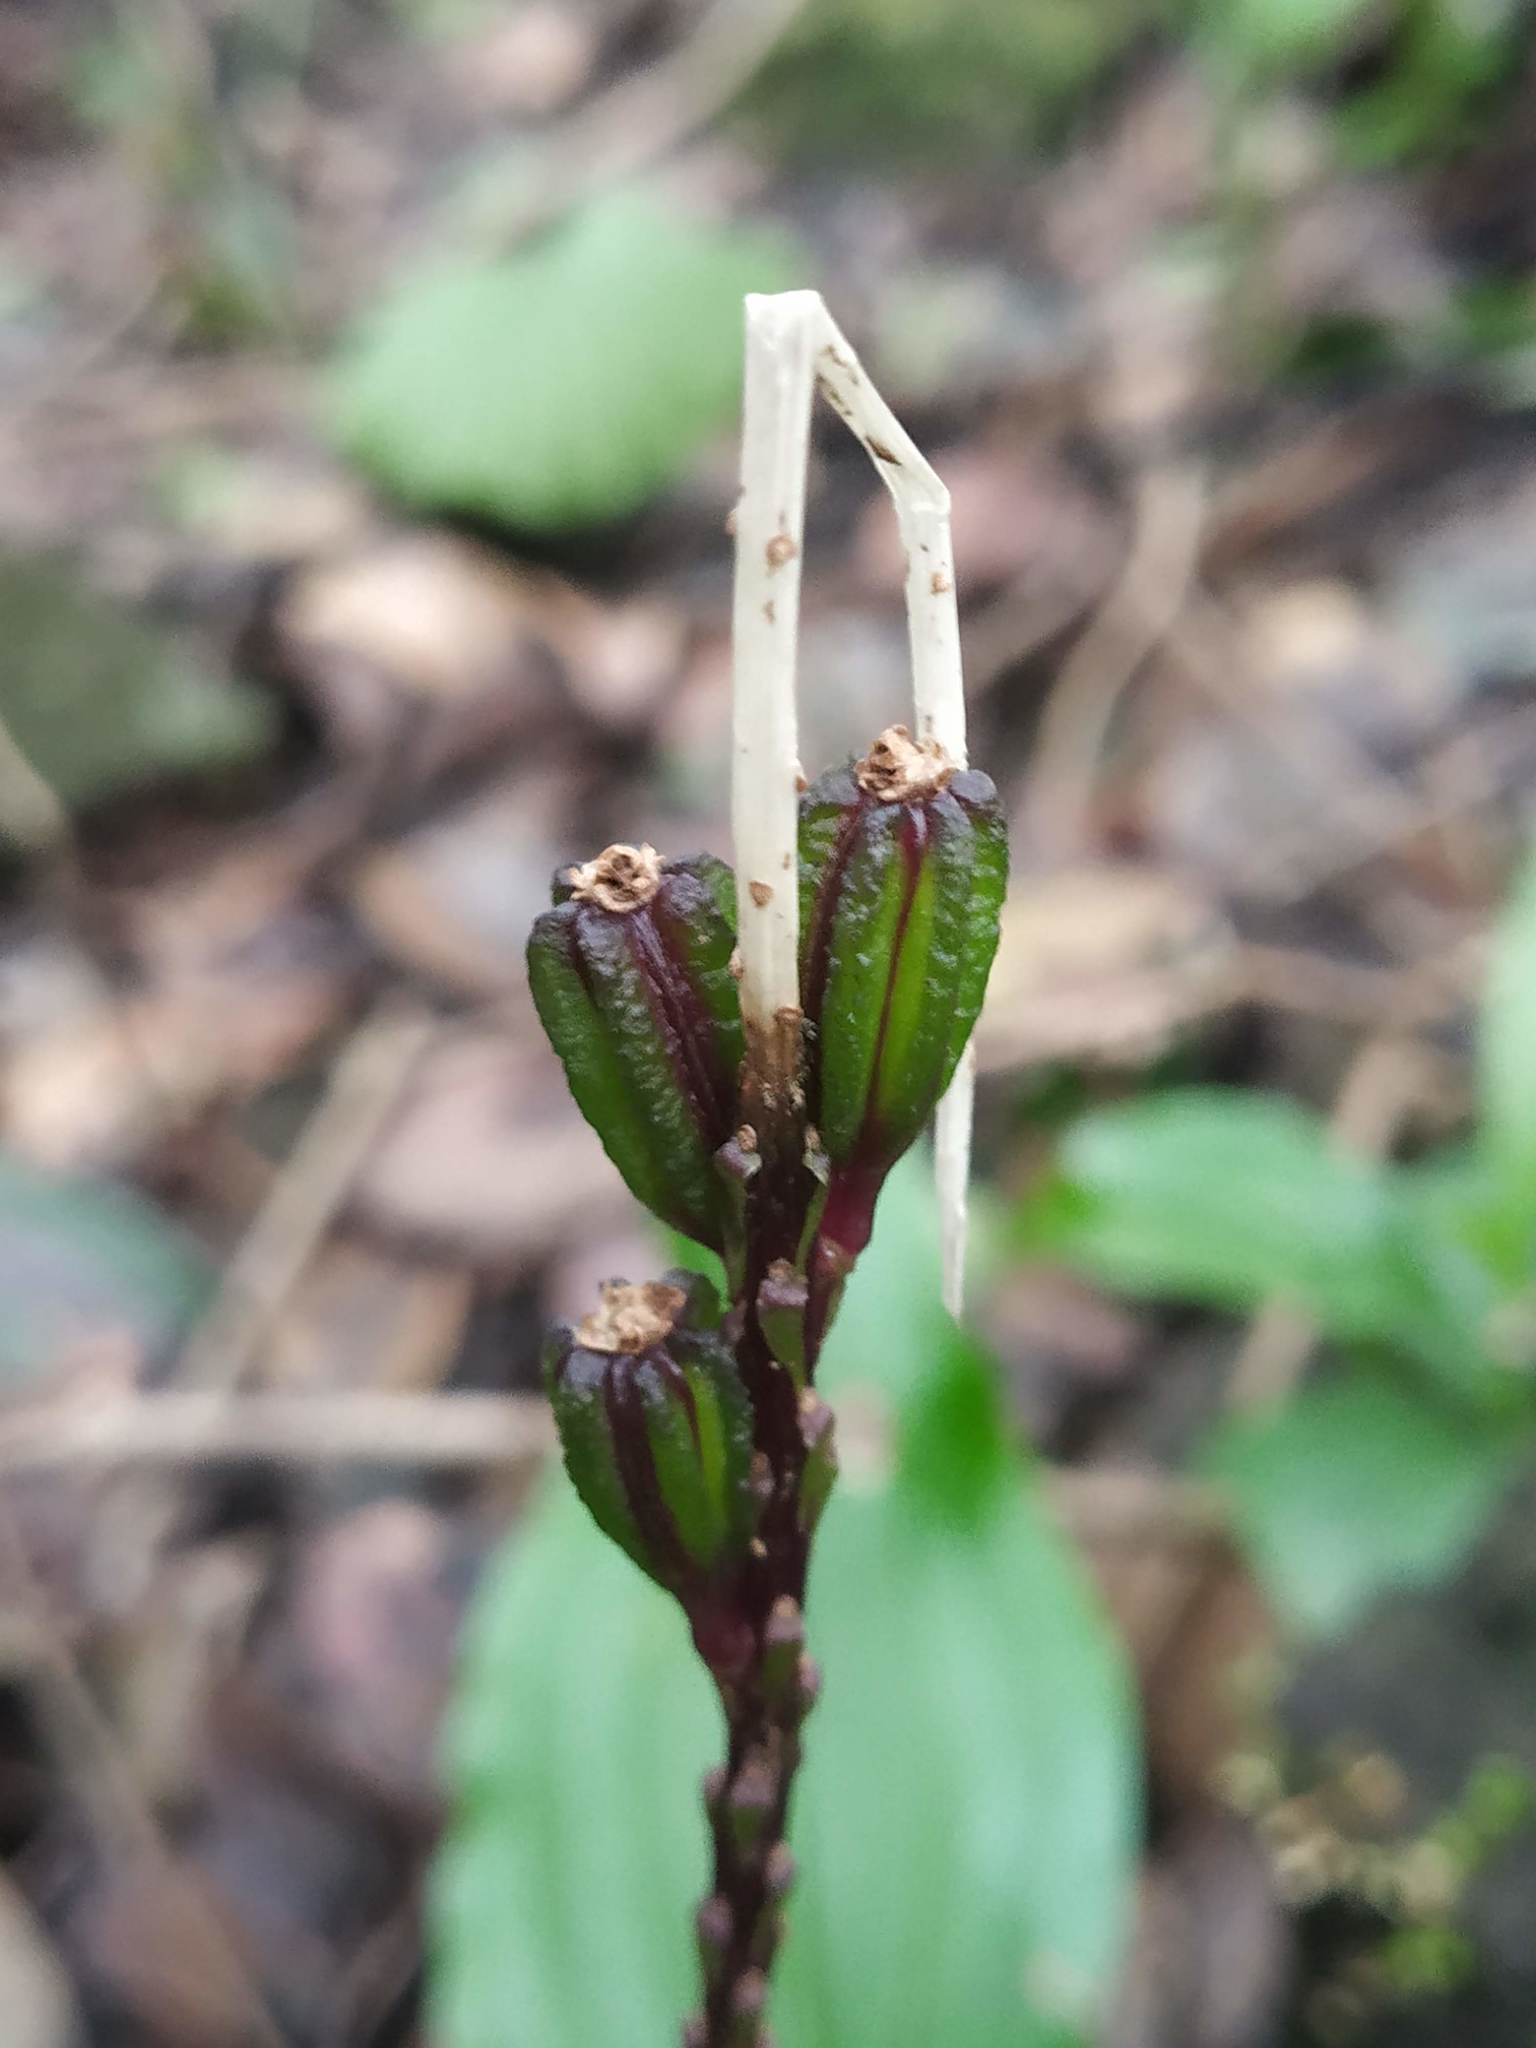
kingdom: Plantae
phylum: Tracheophyta
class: Liliopsida
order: Asparagales
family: Orchidaceae
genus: Malaxis
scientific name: Malaxis versicolor
